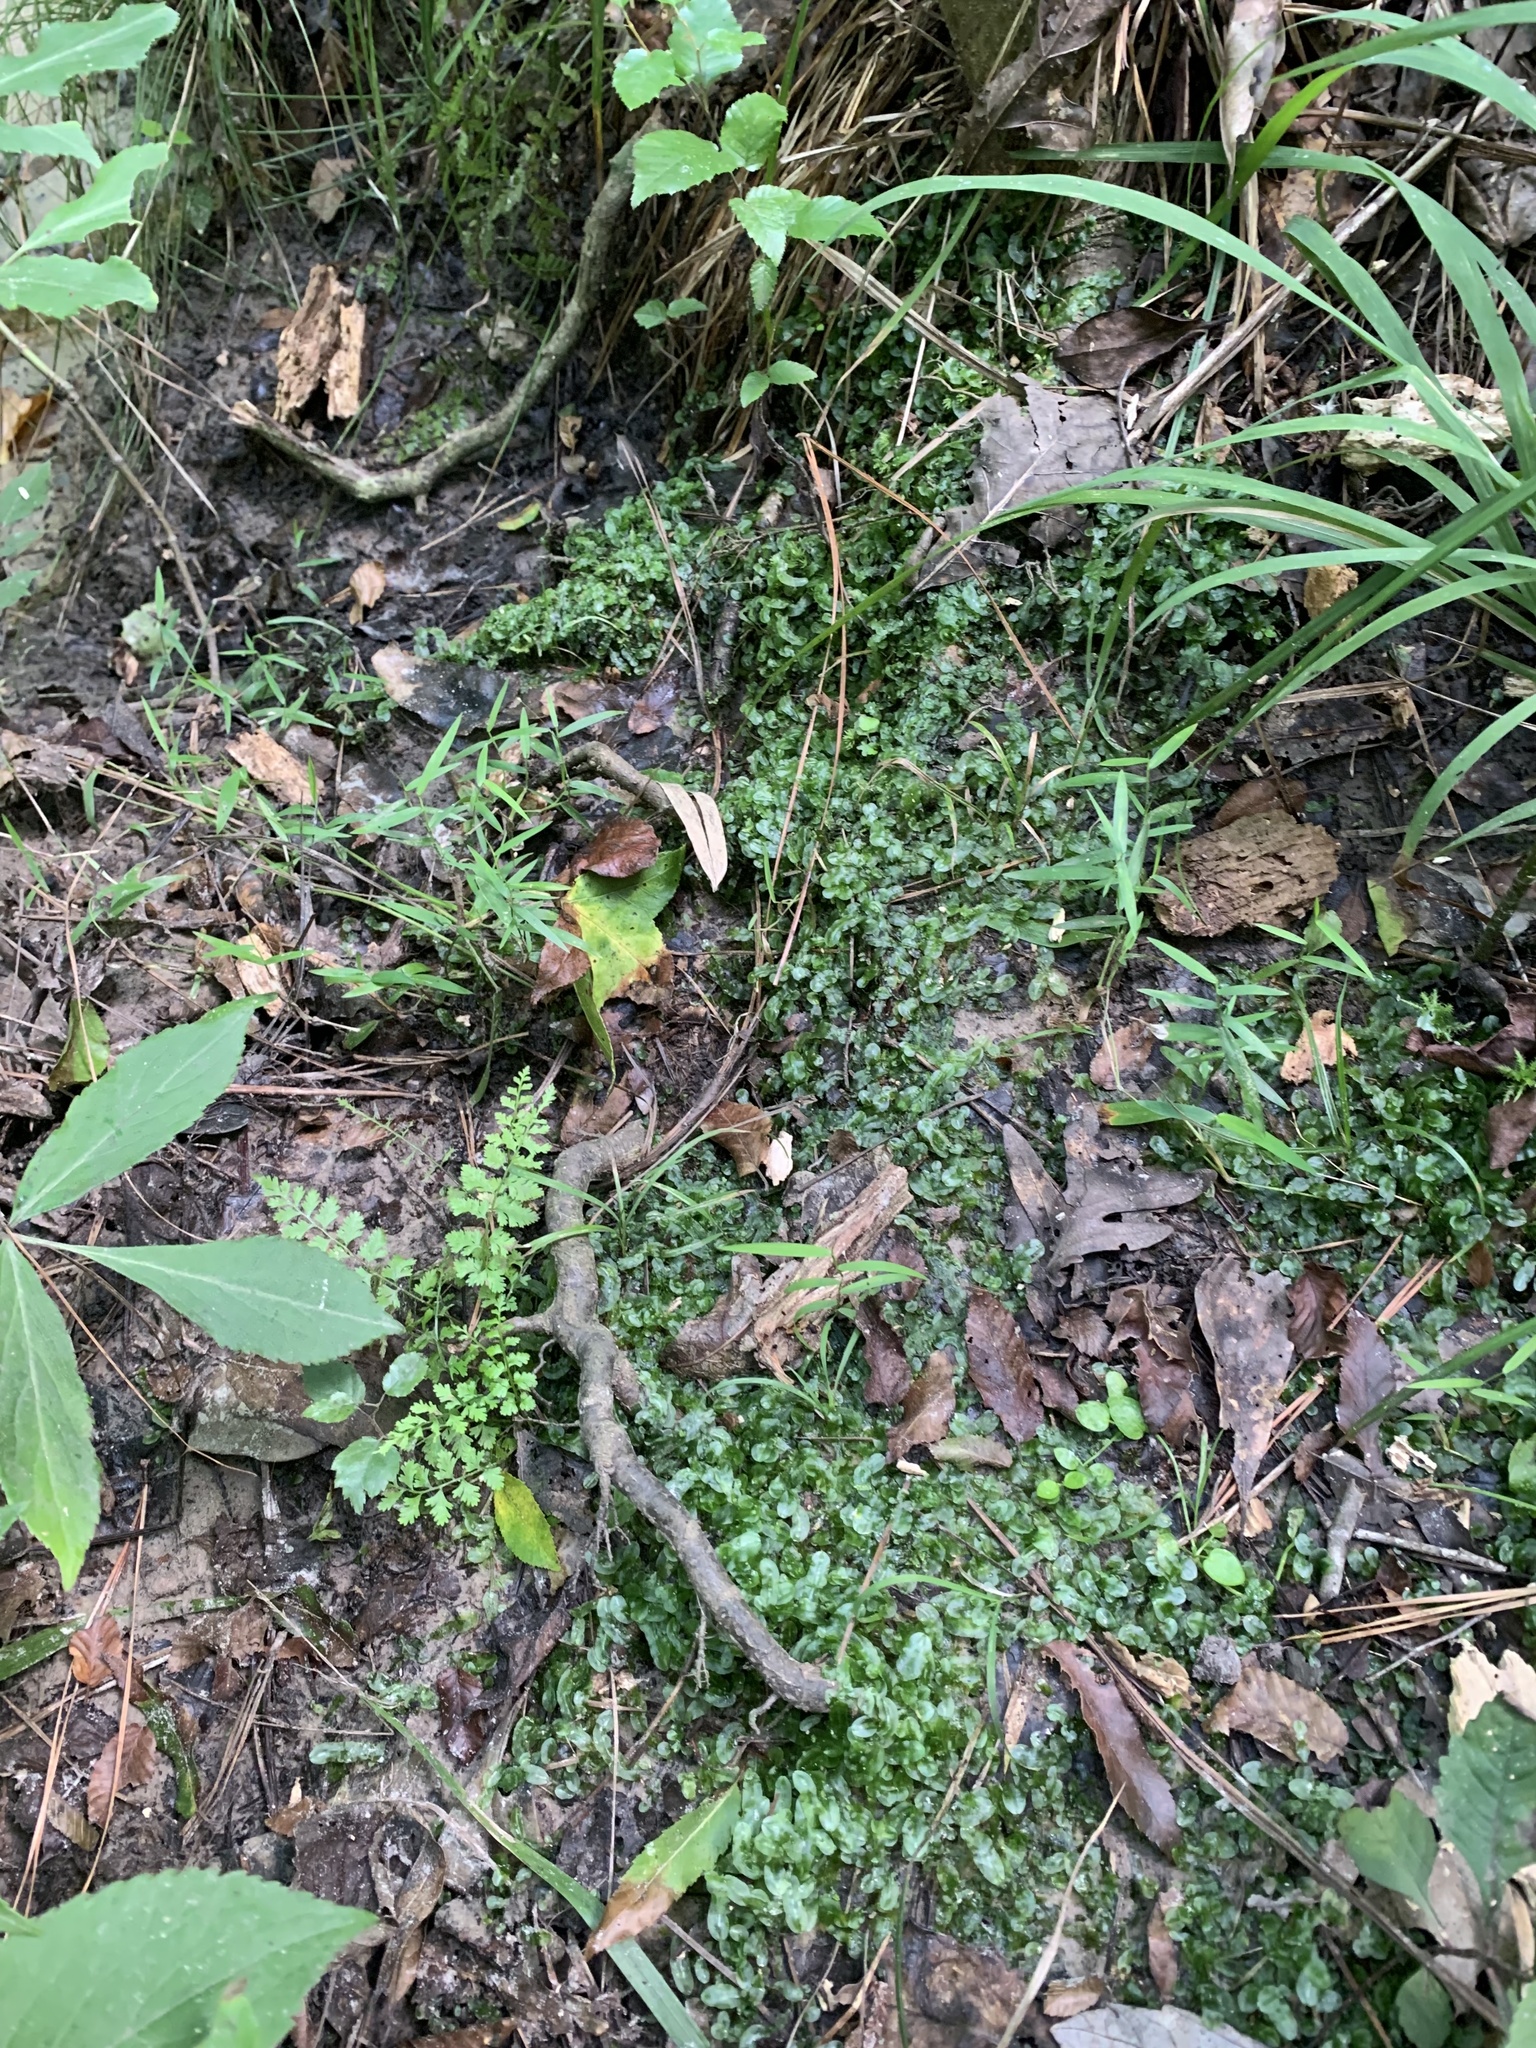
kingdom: Plantae
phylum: Marchantiophyta
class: Jungermanniopsida
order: Pallaviciniales
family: Pallaviciniaceae
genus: Pallavicinia
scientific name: Pallavicinia lyellii
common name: Veilwort
